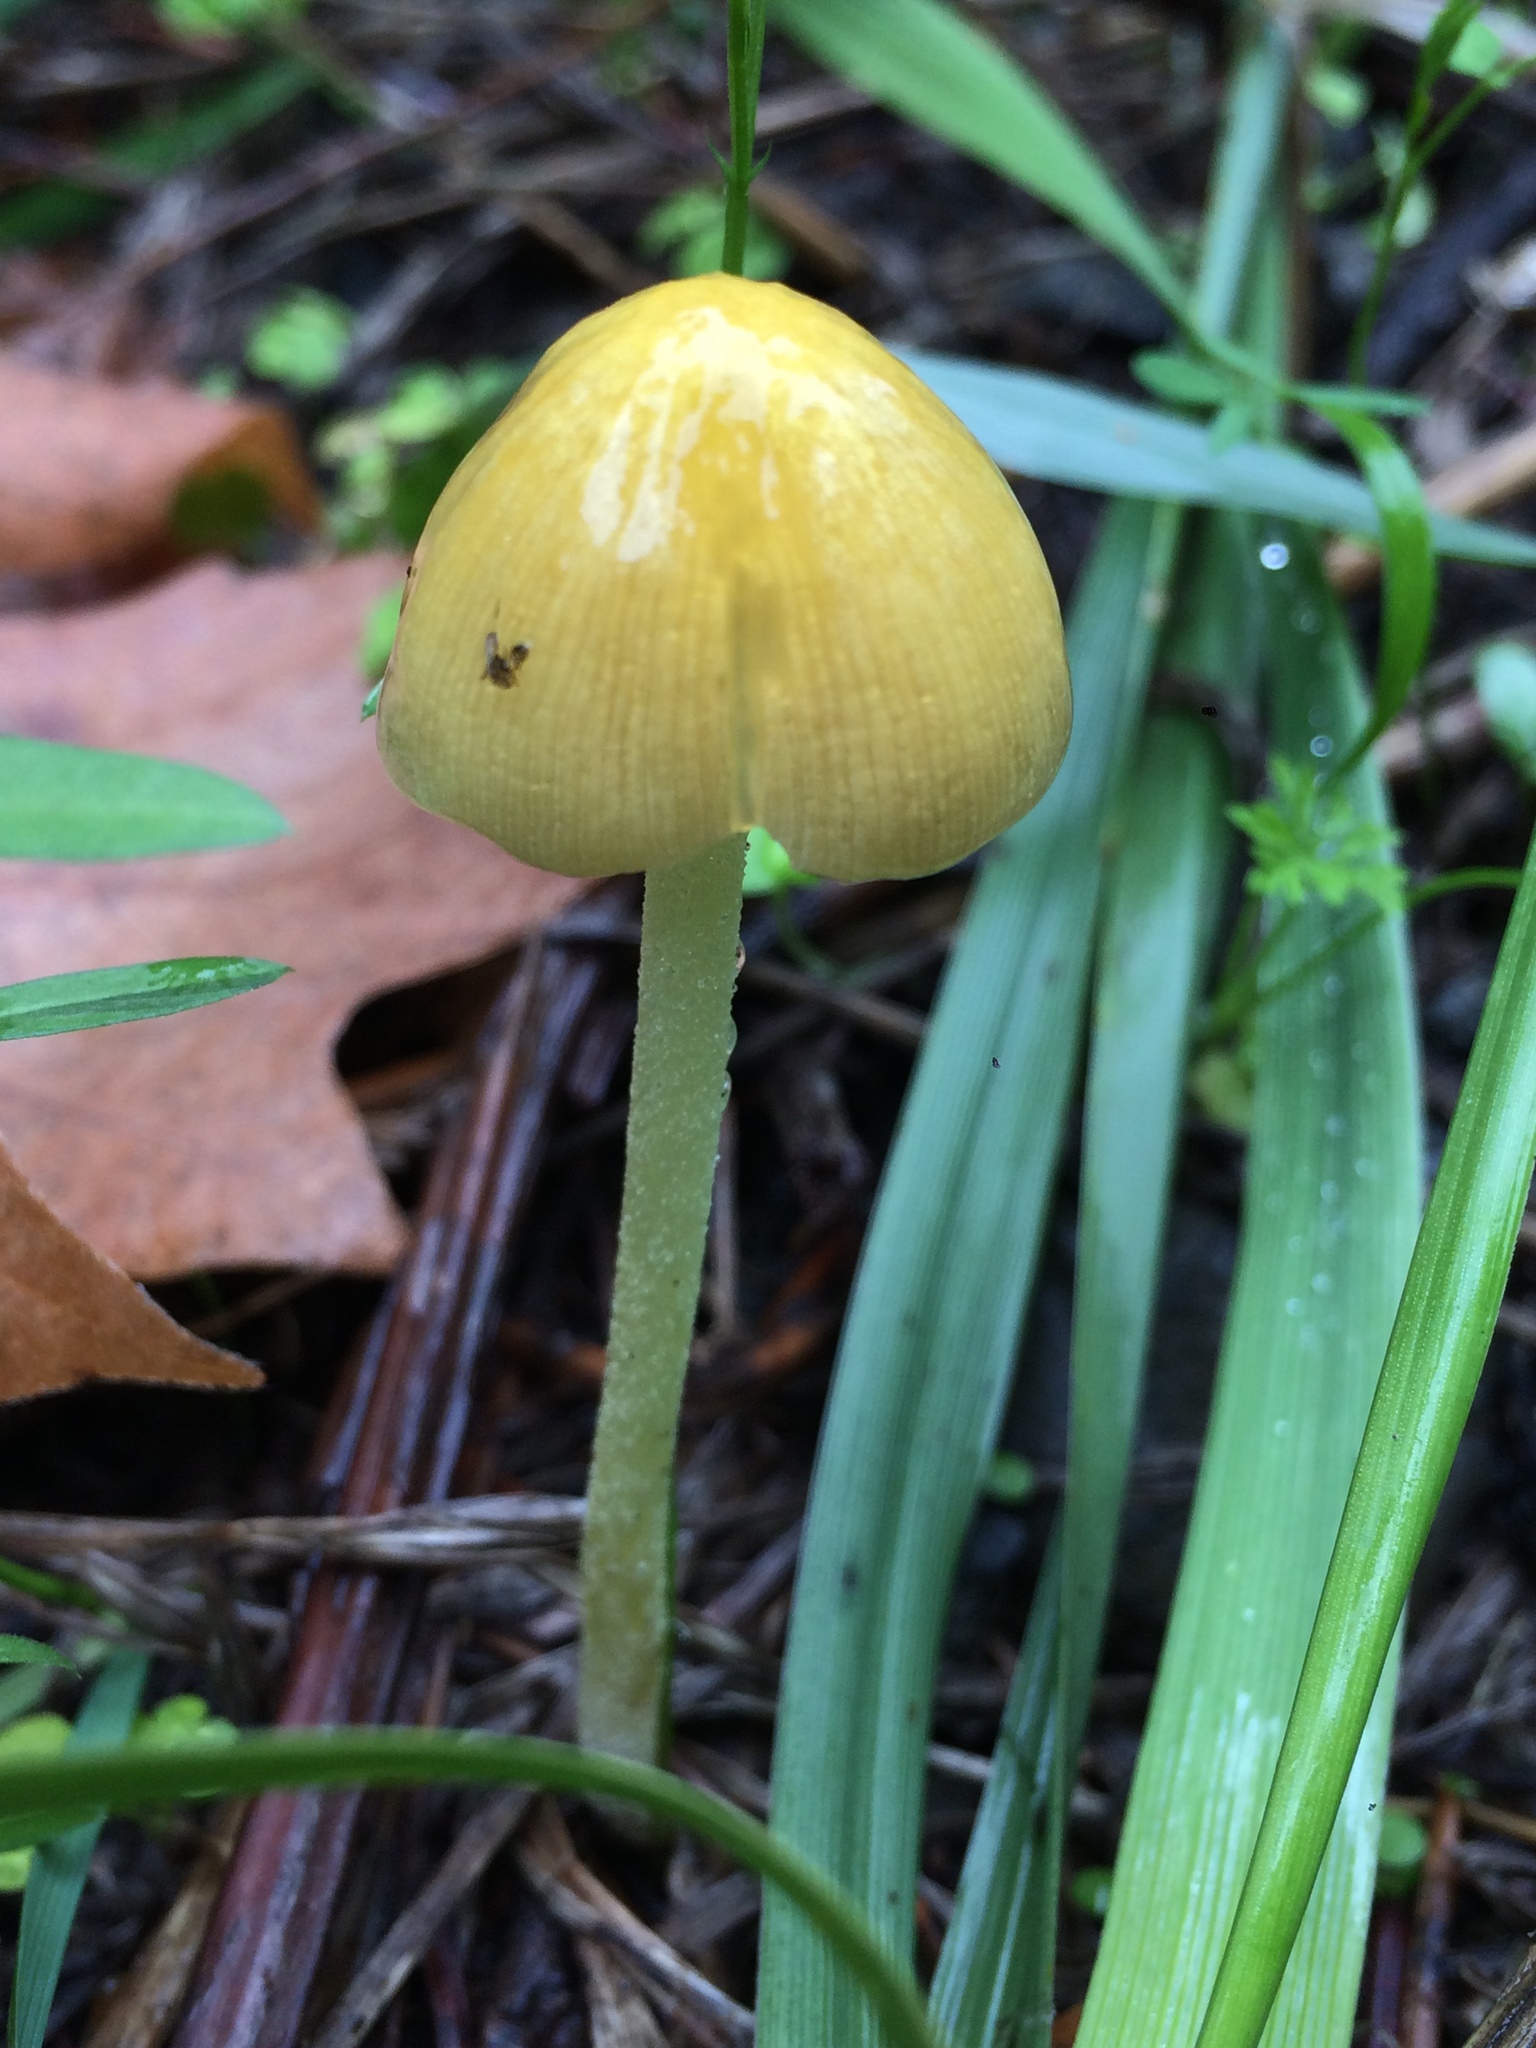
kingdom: Fungi
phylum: Basidiomycota
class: Agaricomycetes
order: Agaricales
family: Bolbitiaceae
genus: Bolbitius
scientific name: Bolbitius titubans
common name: Yellow fieldcap
